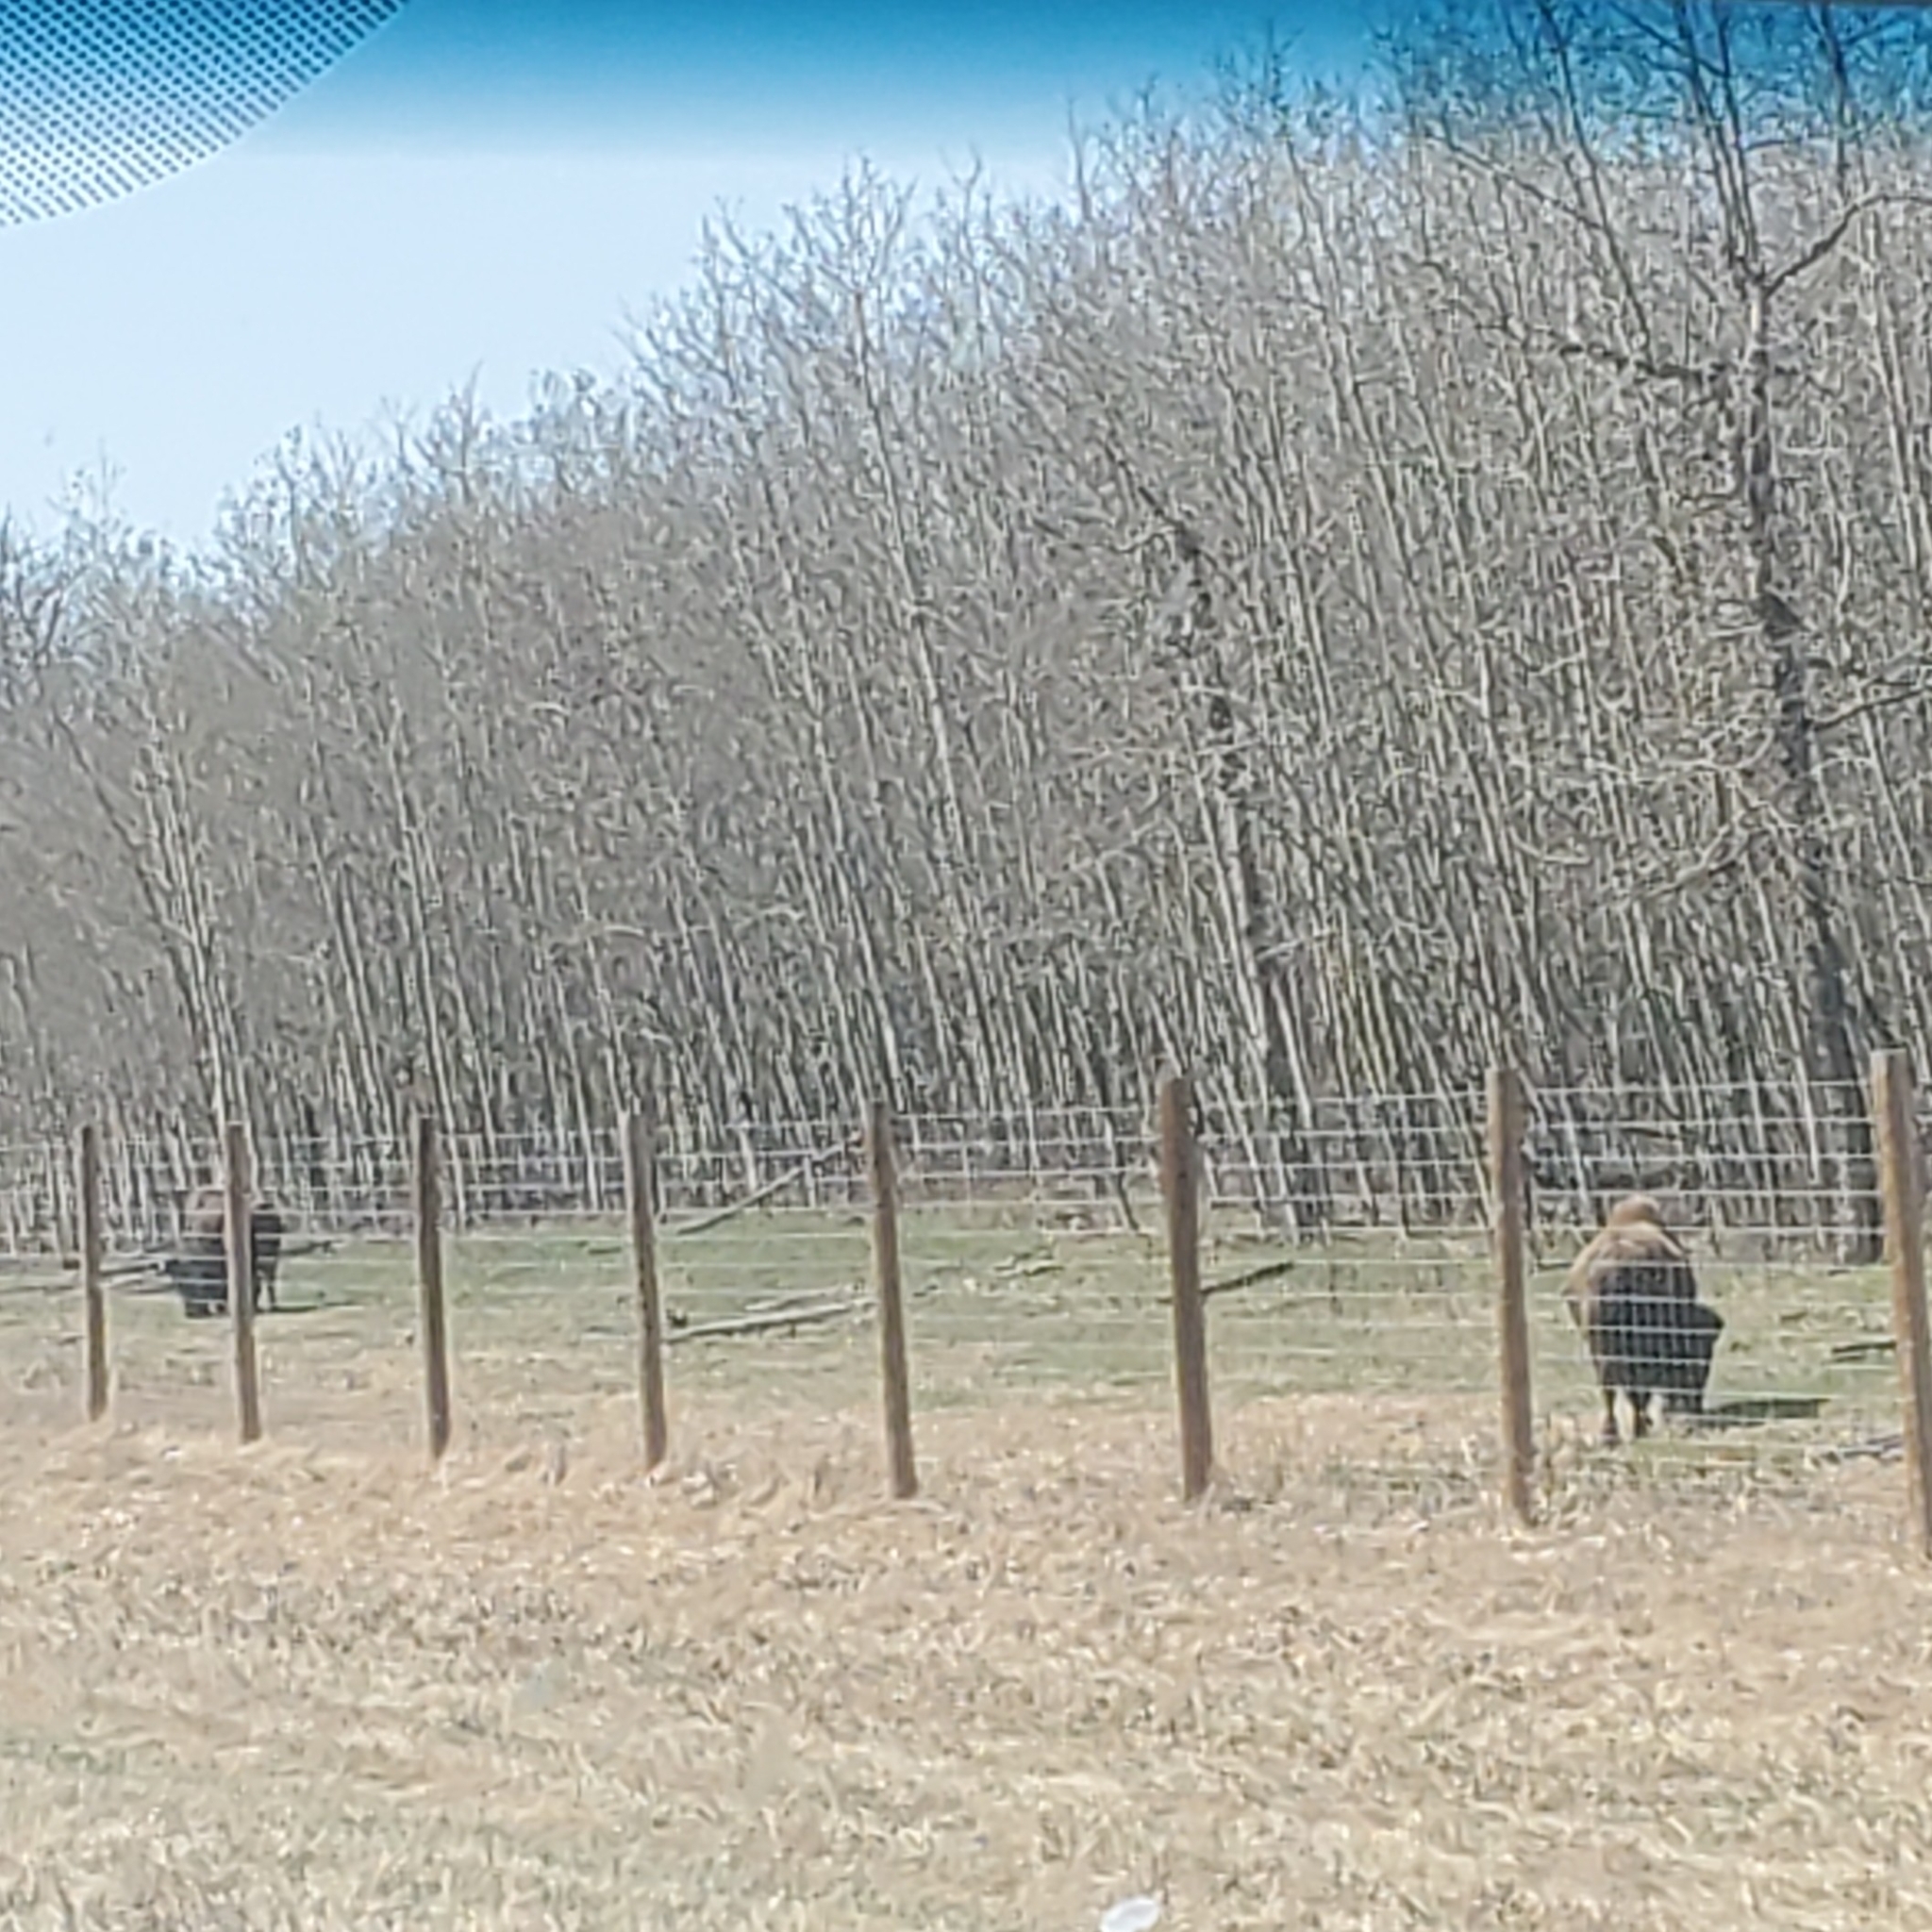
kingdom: Animalia
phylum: Chordata
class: Mammalia
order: Artiodactyla
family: Bovidae
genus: Bison
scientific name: Bison bison
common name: American bison
